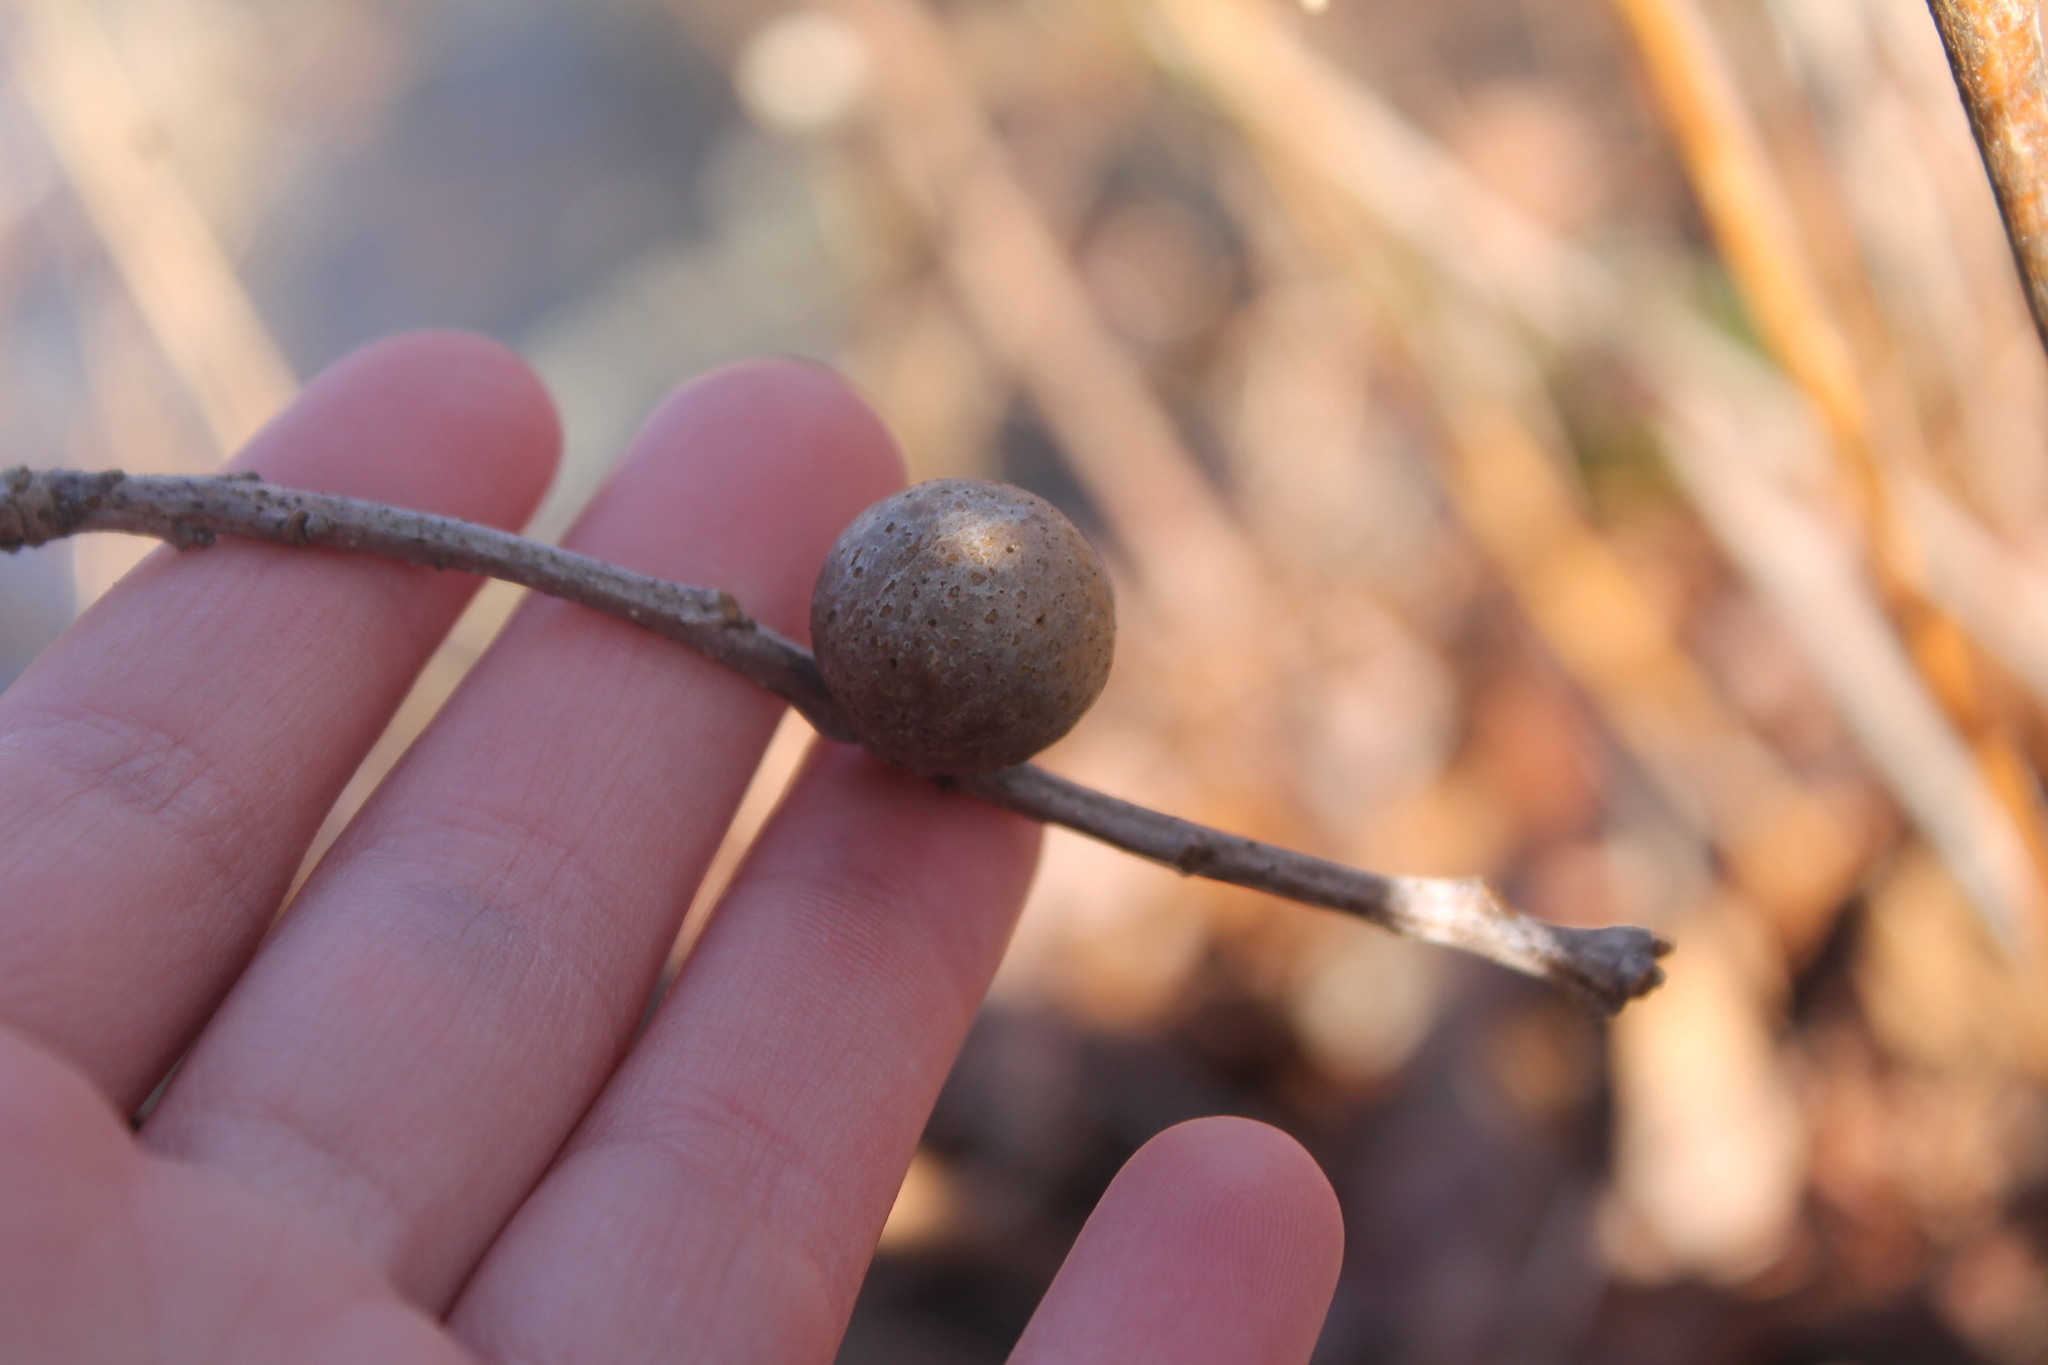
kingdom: Animalia
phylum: Arthropoda
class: Insecta
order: Hymenoptera
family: Cynipidae
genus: Disholcaspis
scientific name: Disholcaspis quercusglobulus
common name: Round bullet gall wasp
